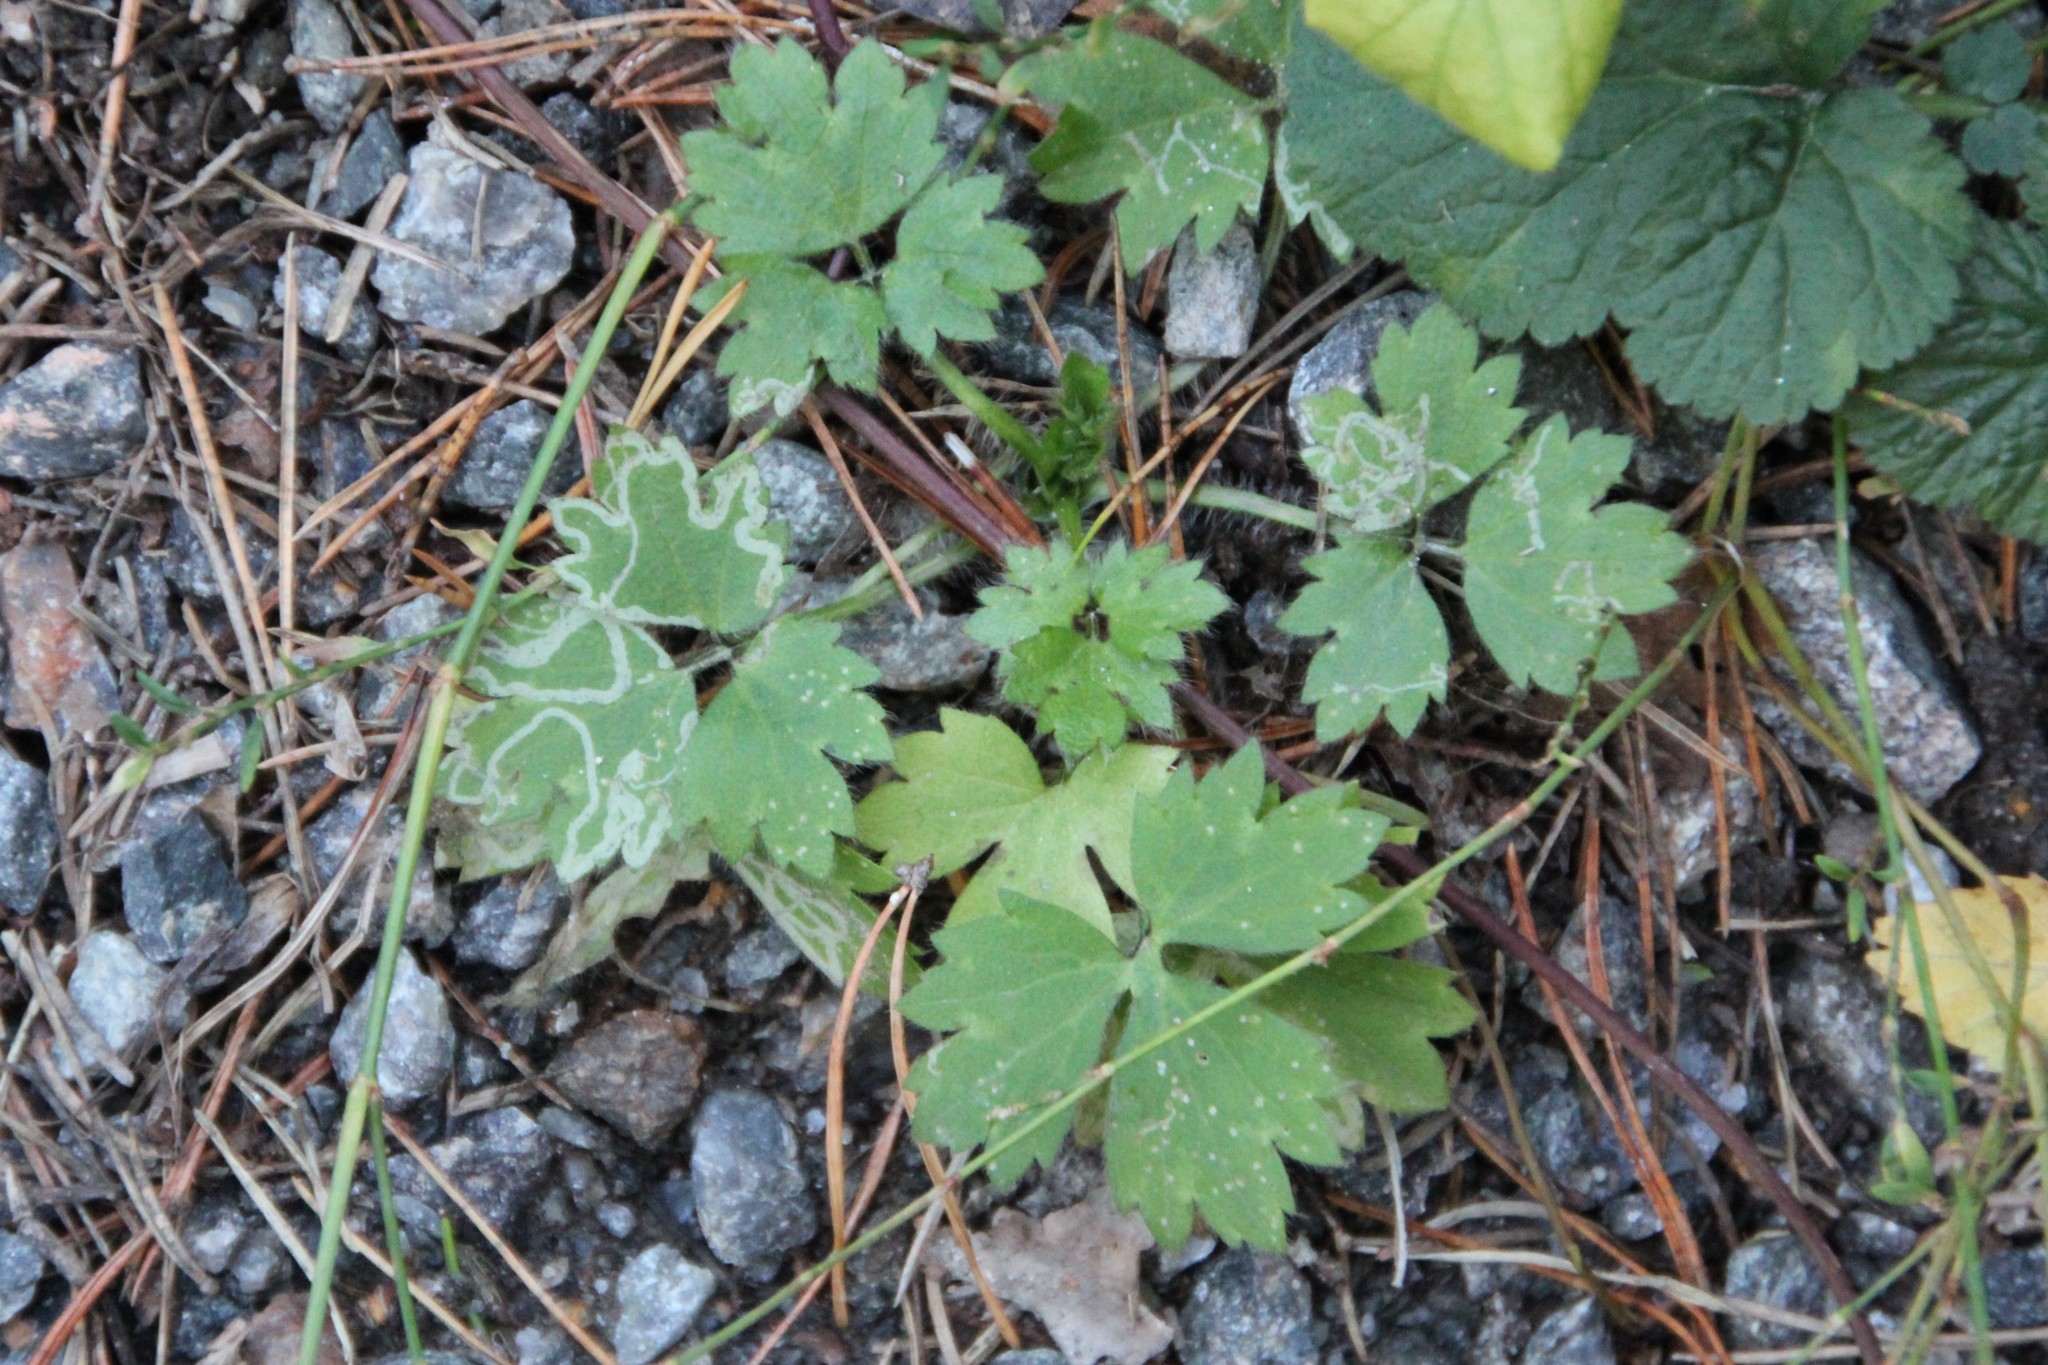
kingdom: Plantae
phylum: Tracheophyta
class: Magnoliopsida
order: Ranunculales
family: Ranunculaceae
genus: Ranunculus
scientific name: Ranunculus repens
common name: Creeping buttercup
